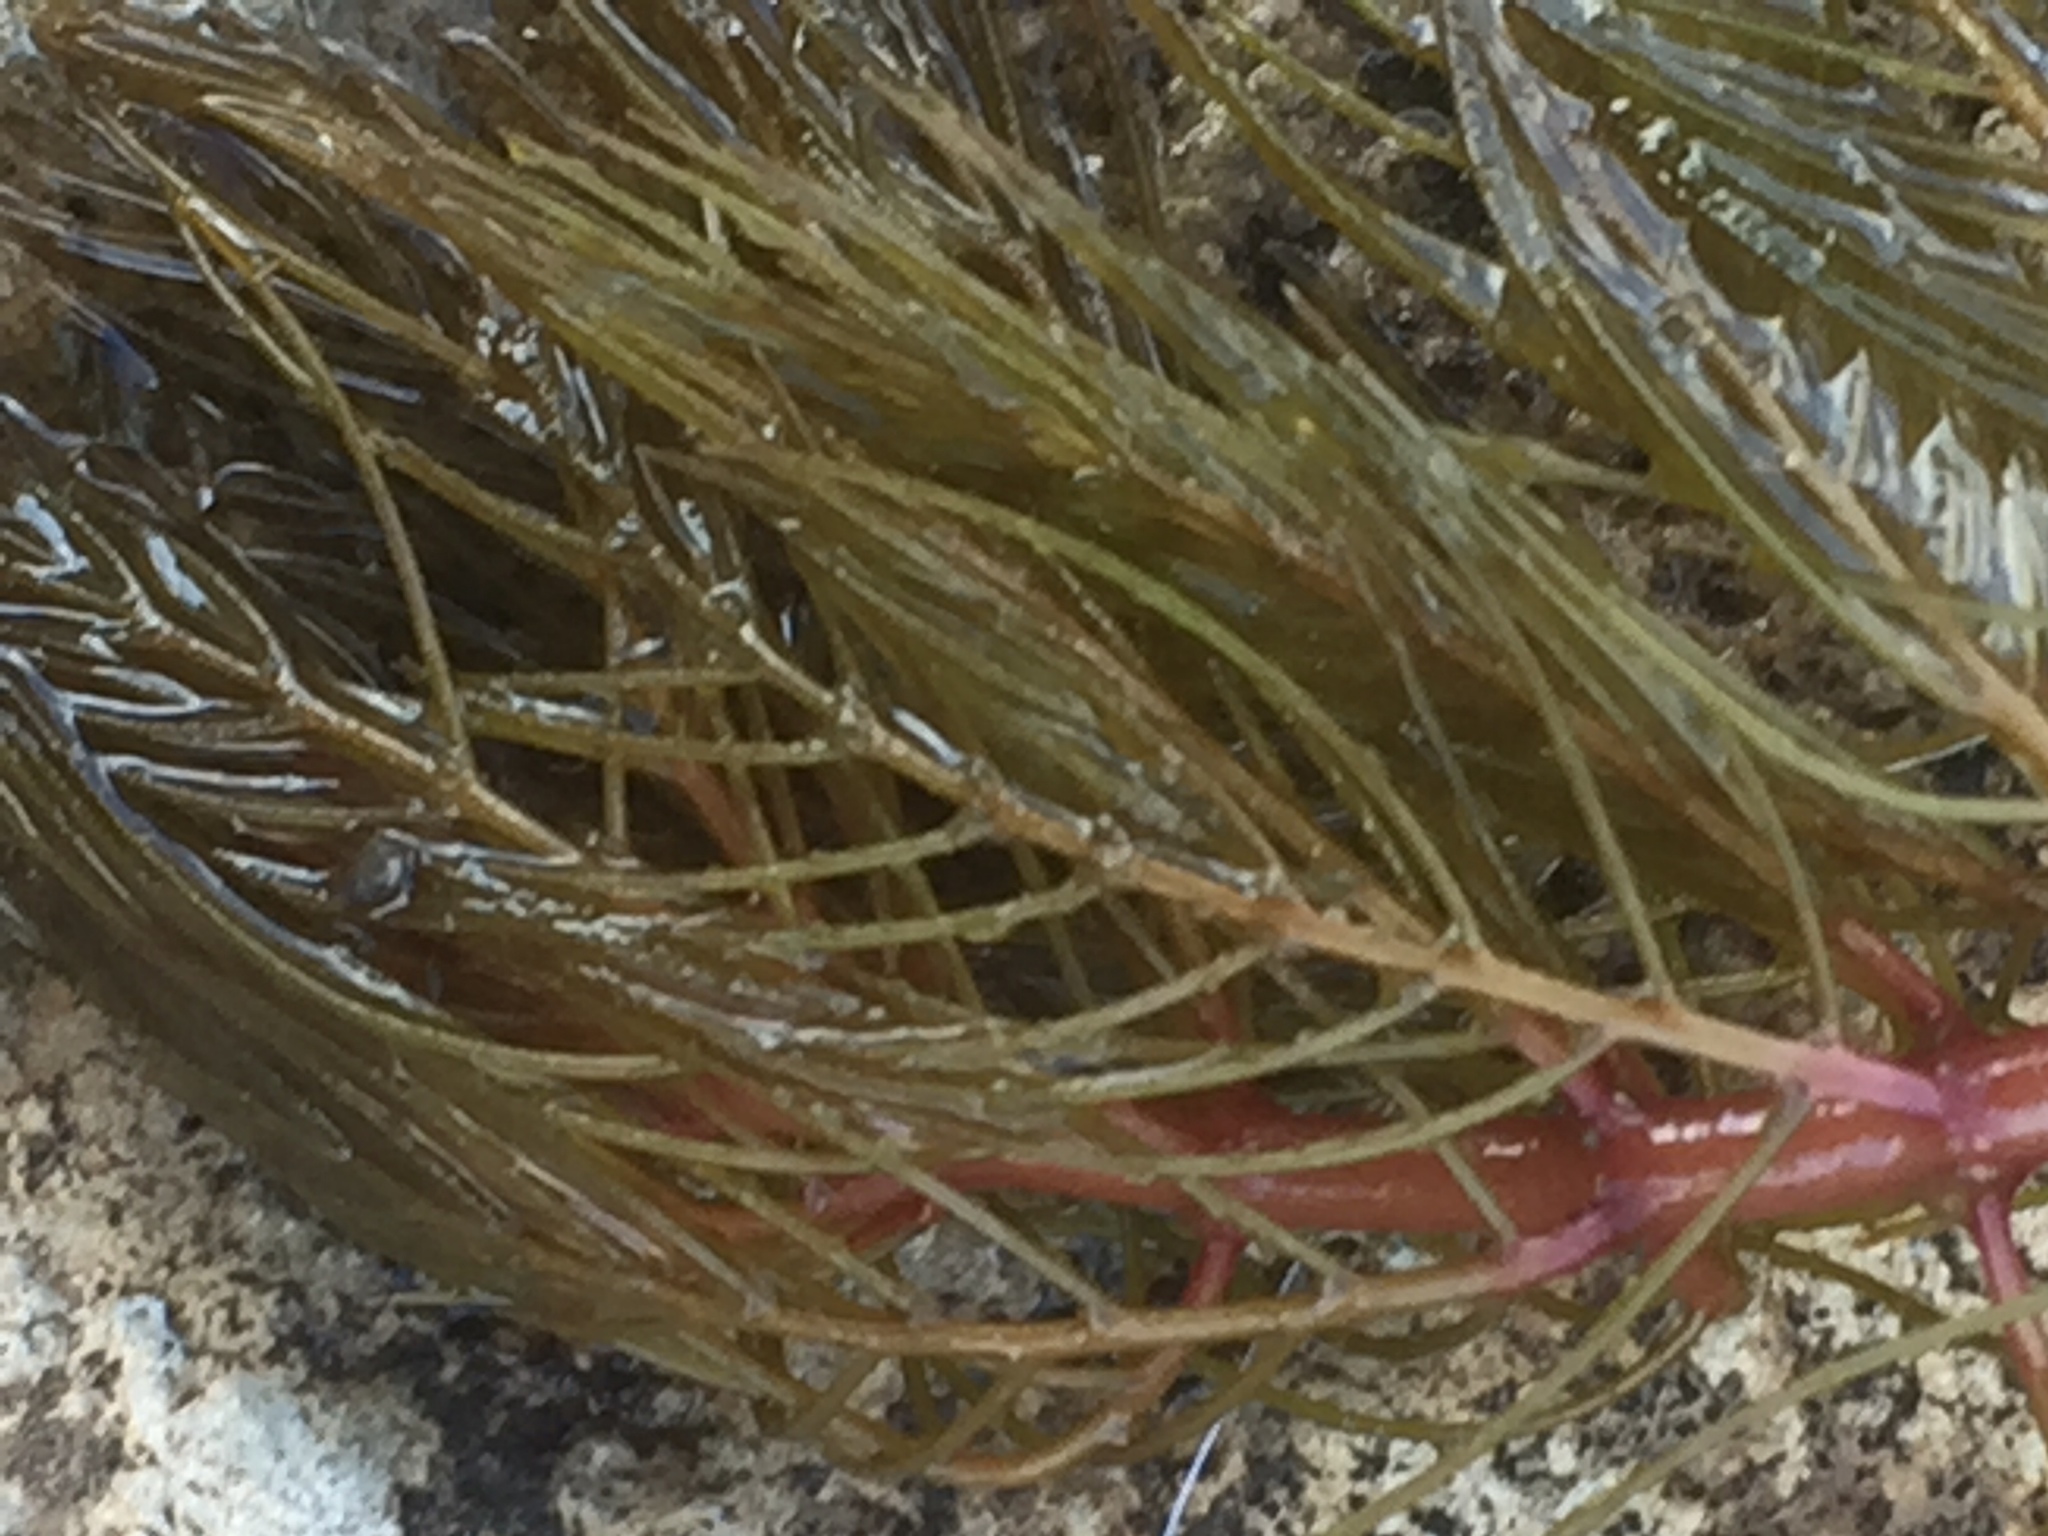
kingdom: Plantae
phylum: Tracheophyta
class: Magnoliopsida
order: Saxifragales
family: Haloragaceae
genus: Myriophyllum
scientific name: Myriophyllum spicatum
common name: Spiked water-milfoil
